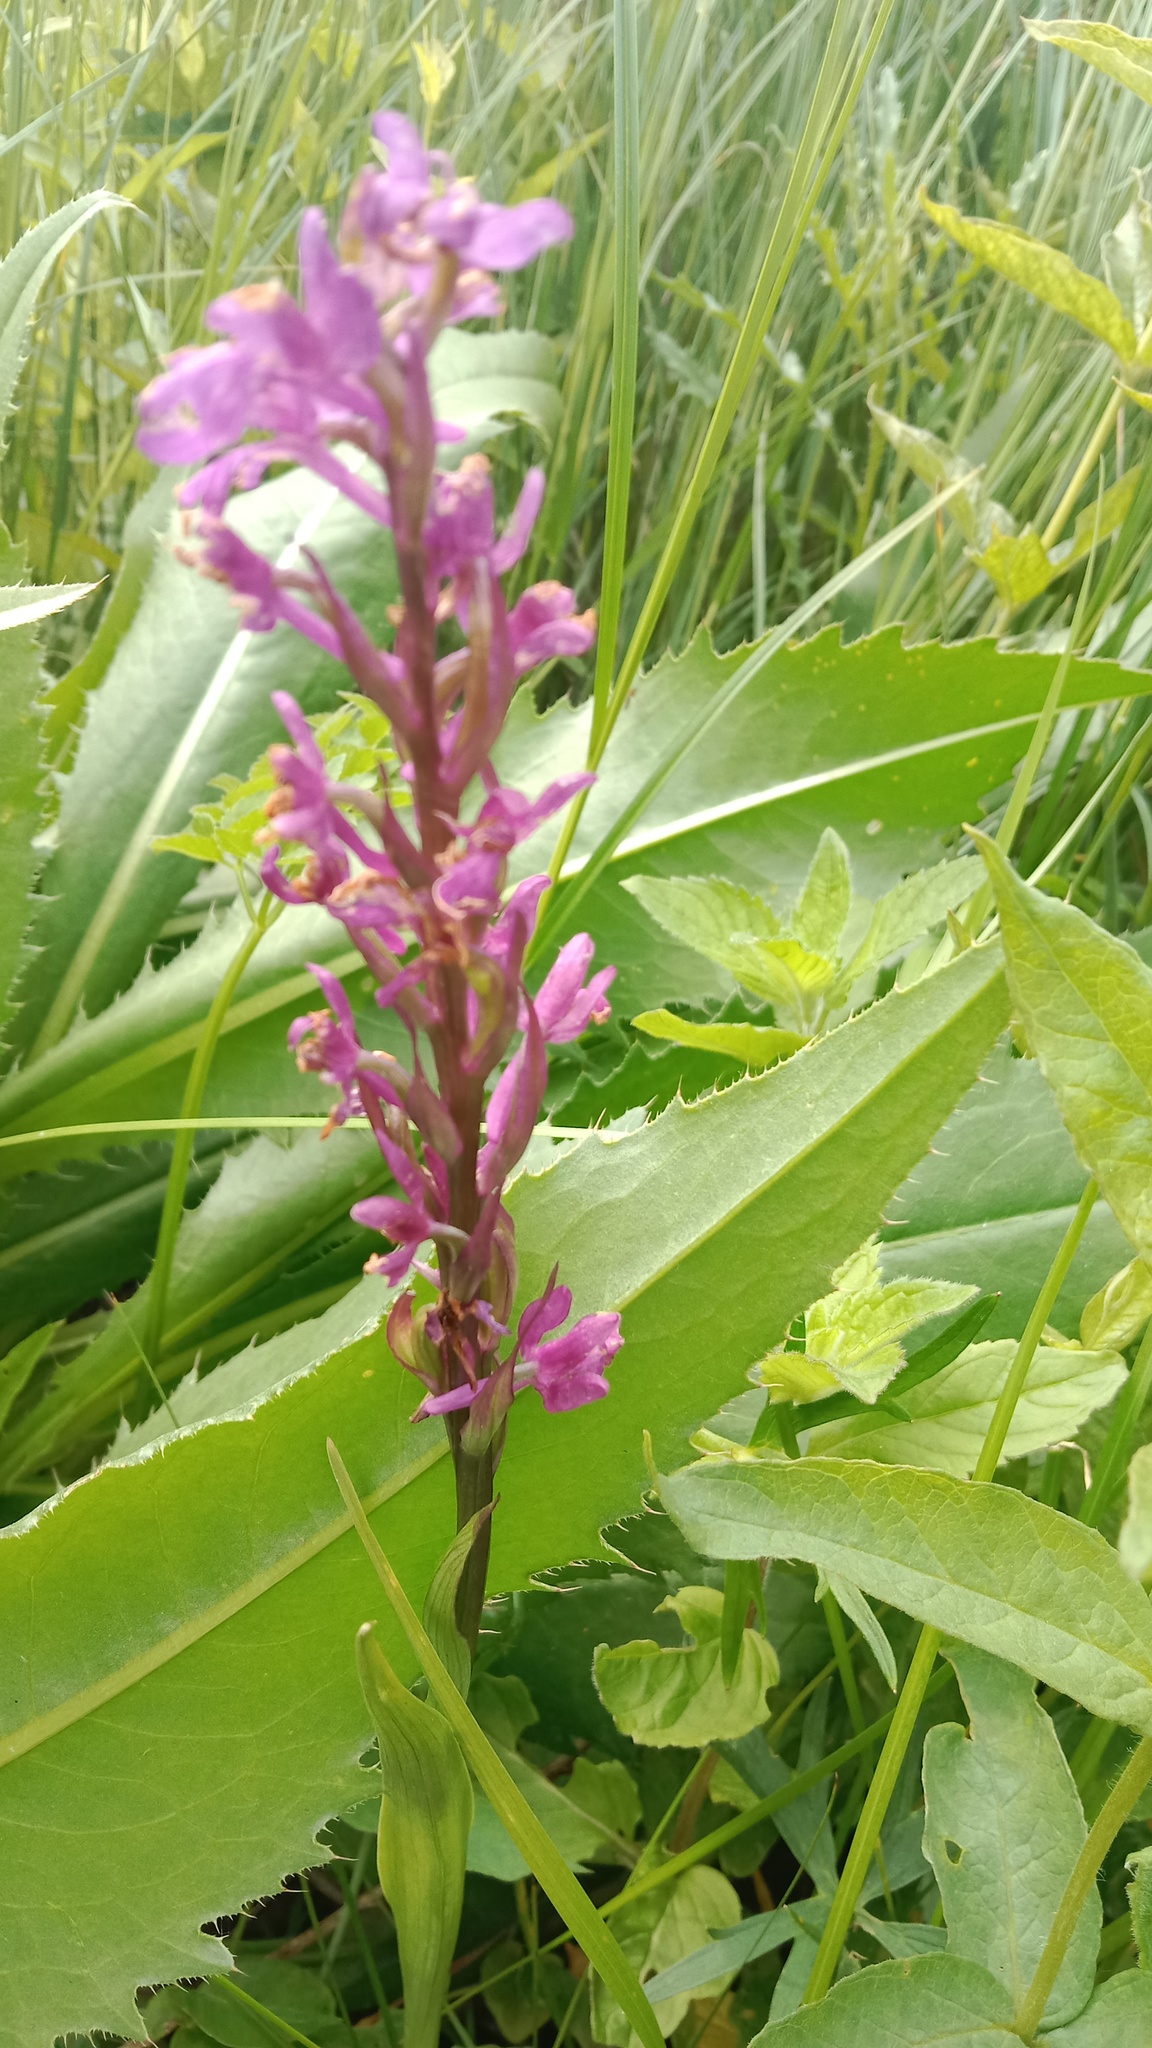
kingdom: Plantae
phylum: Tracheophyta
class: Liliopsida
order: Asparagales
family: Orchidaceae
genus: Anacamptis
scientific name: Anacamptis palustris
